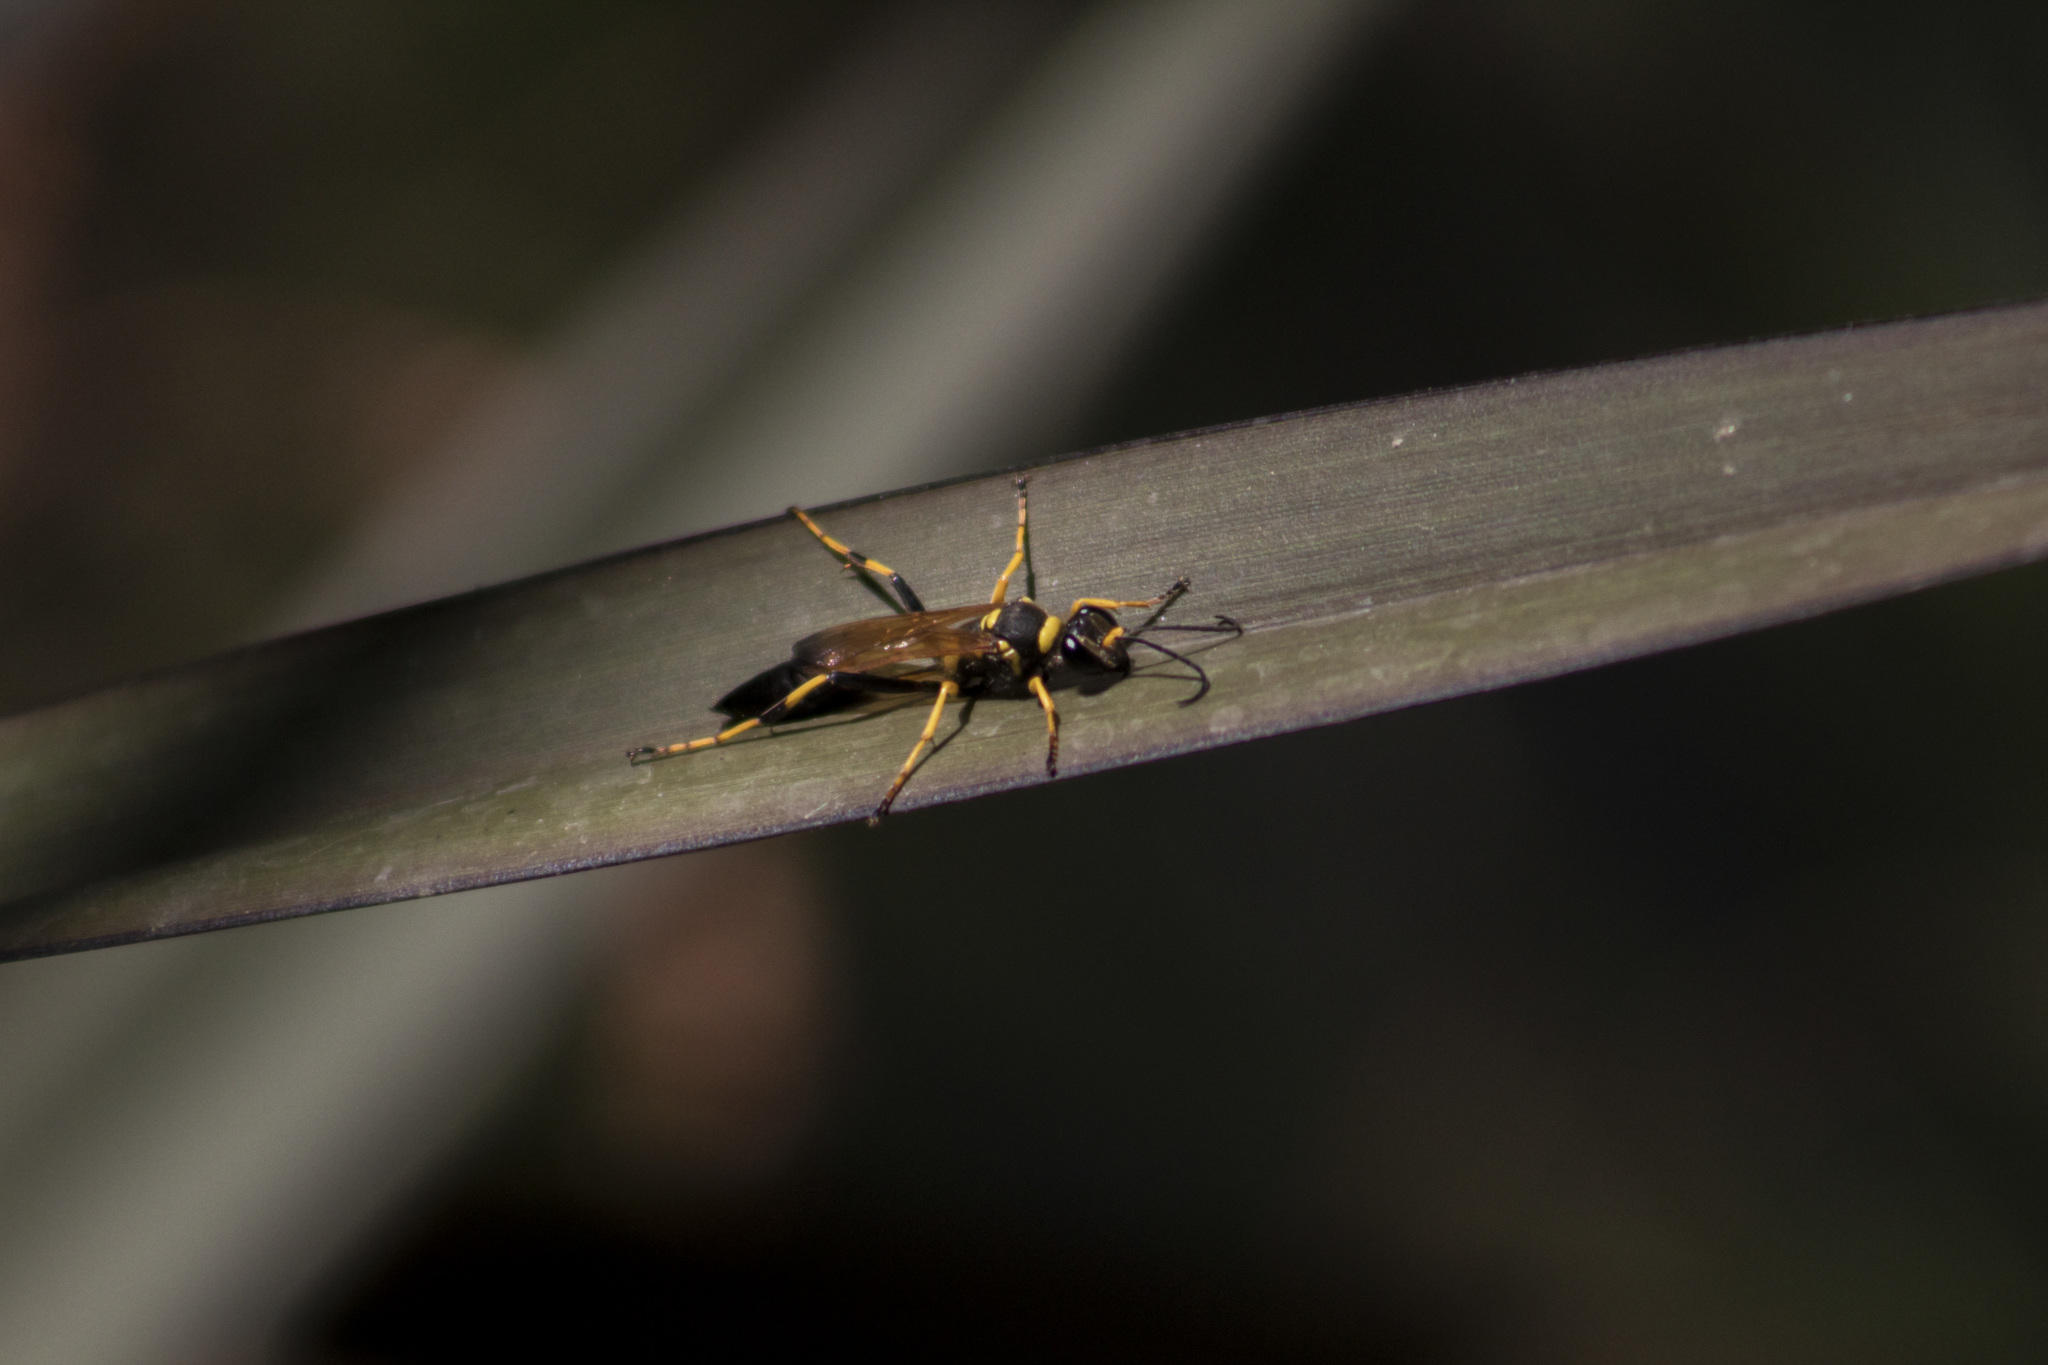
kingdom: Animalia
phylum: Arthropoda
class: Insecta
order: Hymenoptera
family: Sphecidae
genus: Sceliphron
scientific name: Sceliphron caementarium
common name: Mud dauber
